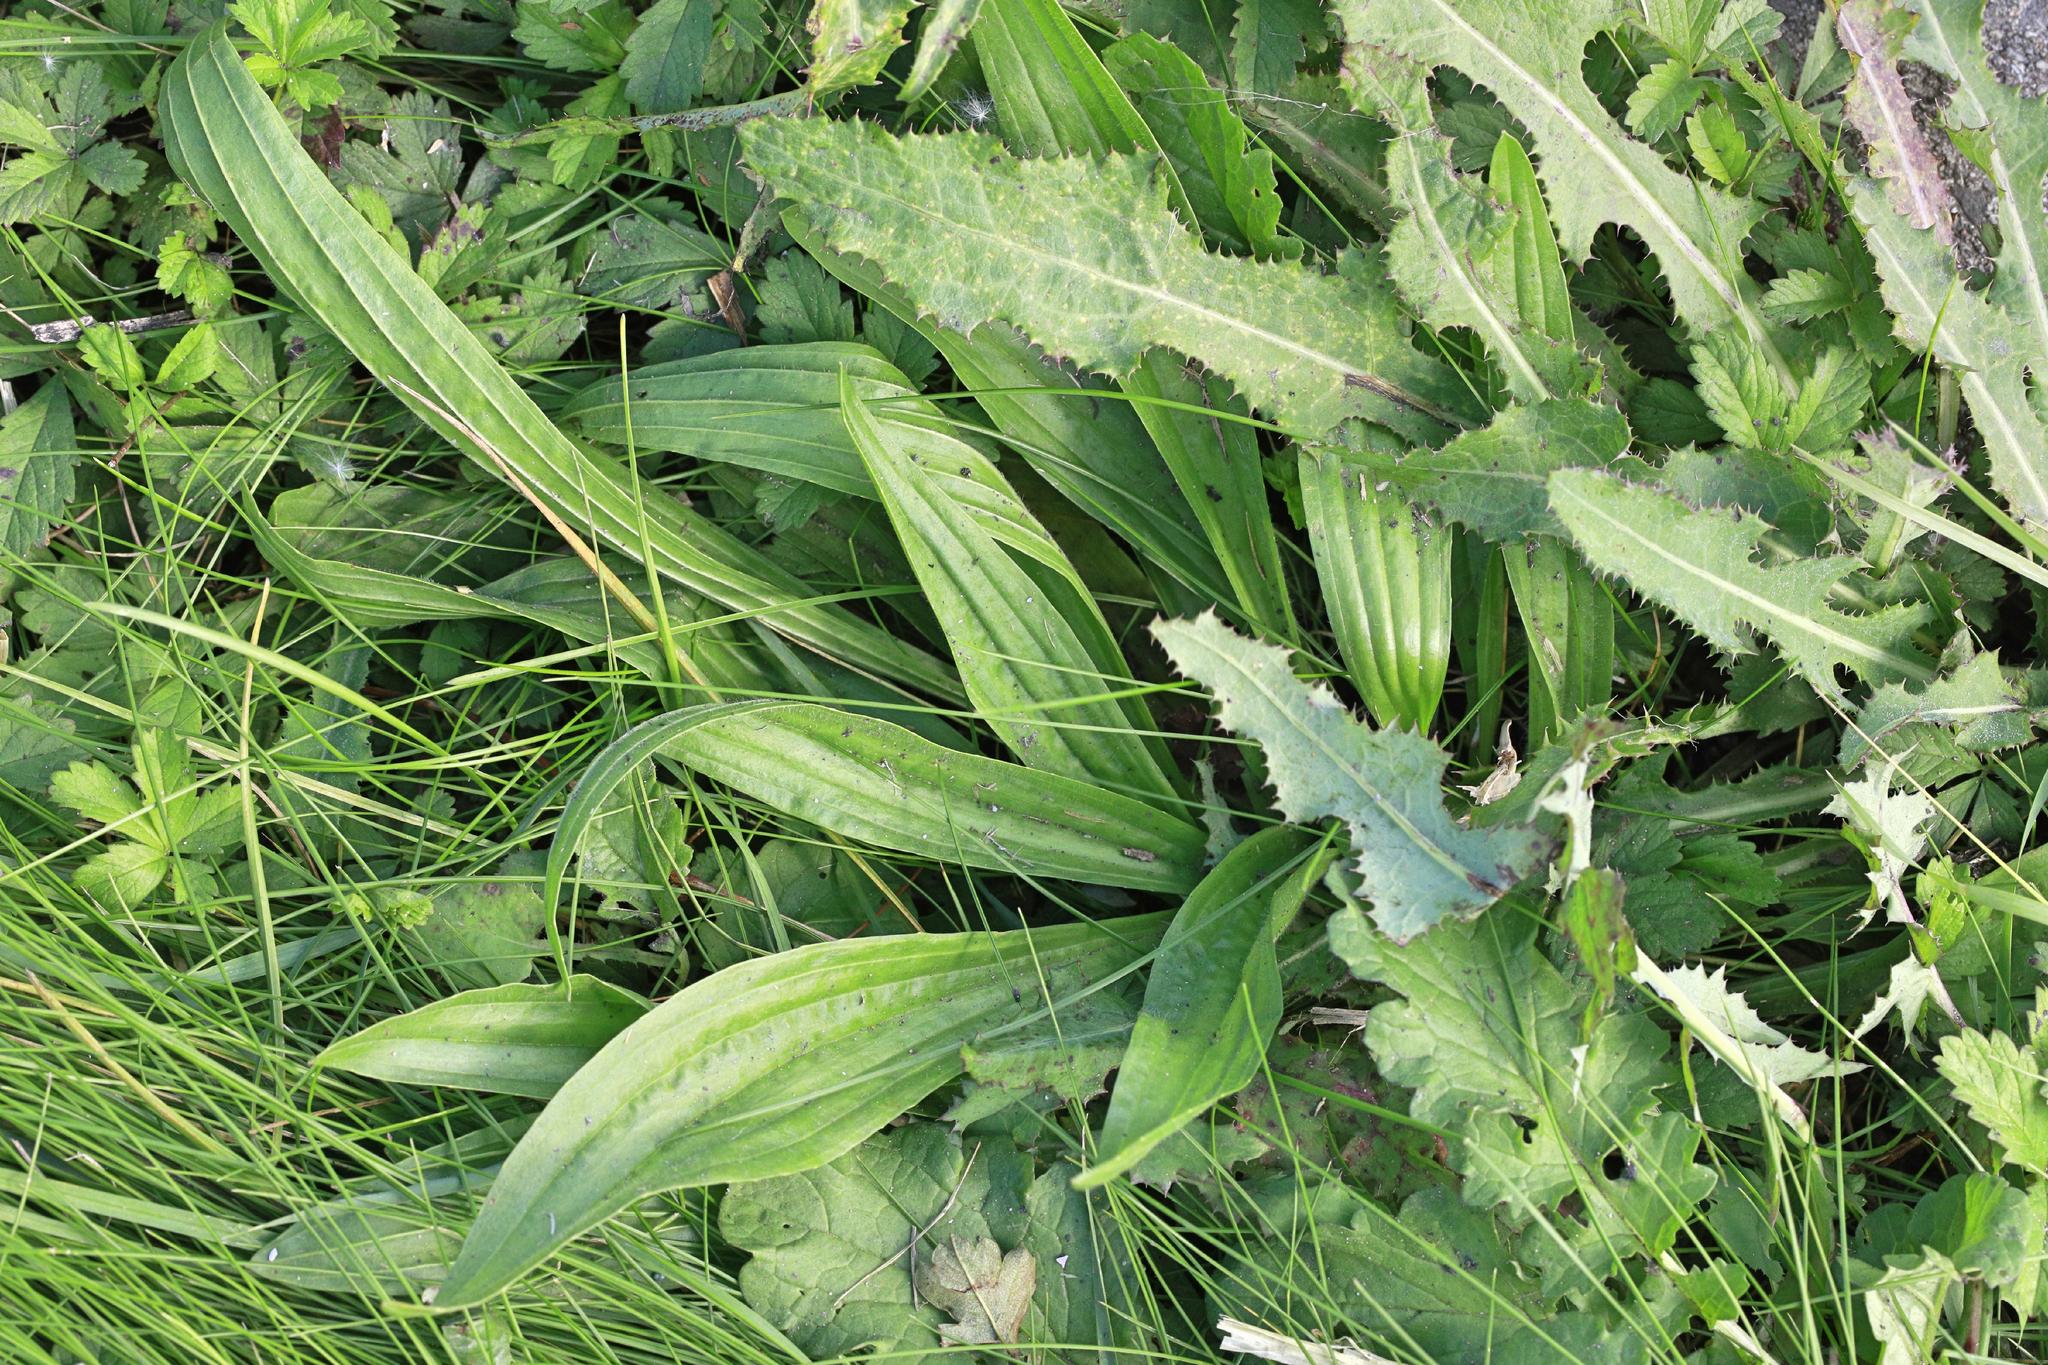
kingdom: Plantae
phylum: Tracheophyta
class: Magnoliopsida
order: Lamiales
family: Plantaginaceae
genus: Plantago
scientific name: Plantago lanceolata
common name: Ribwort plantain
